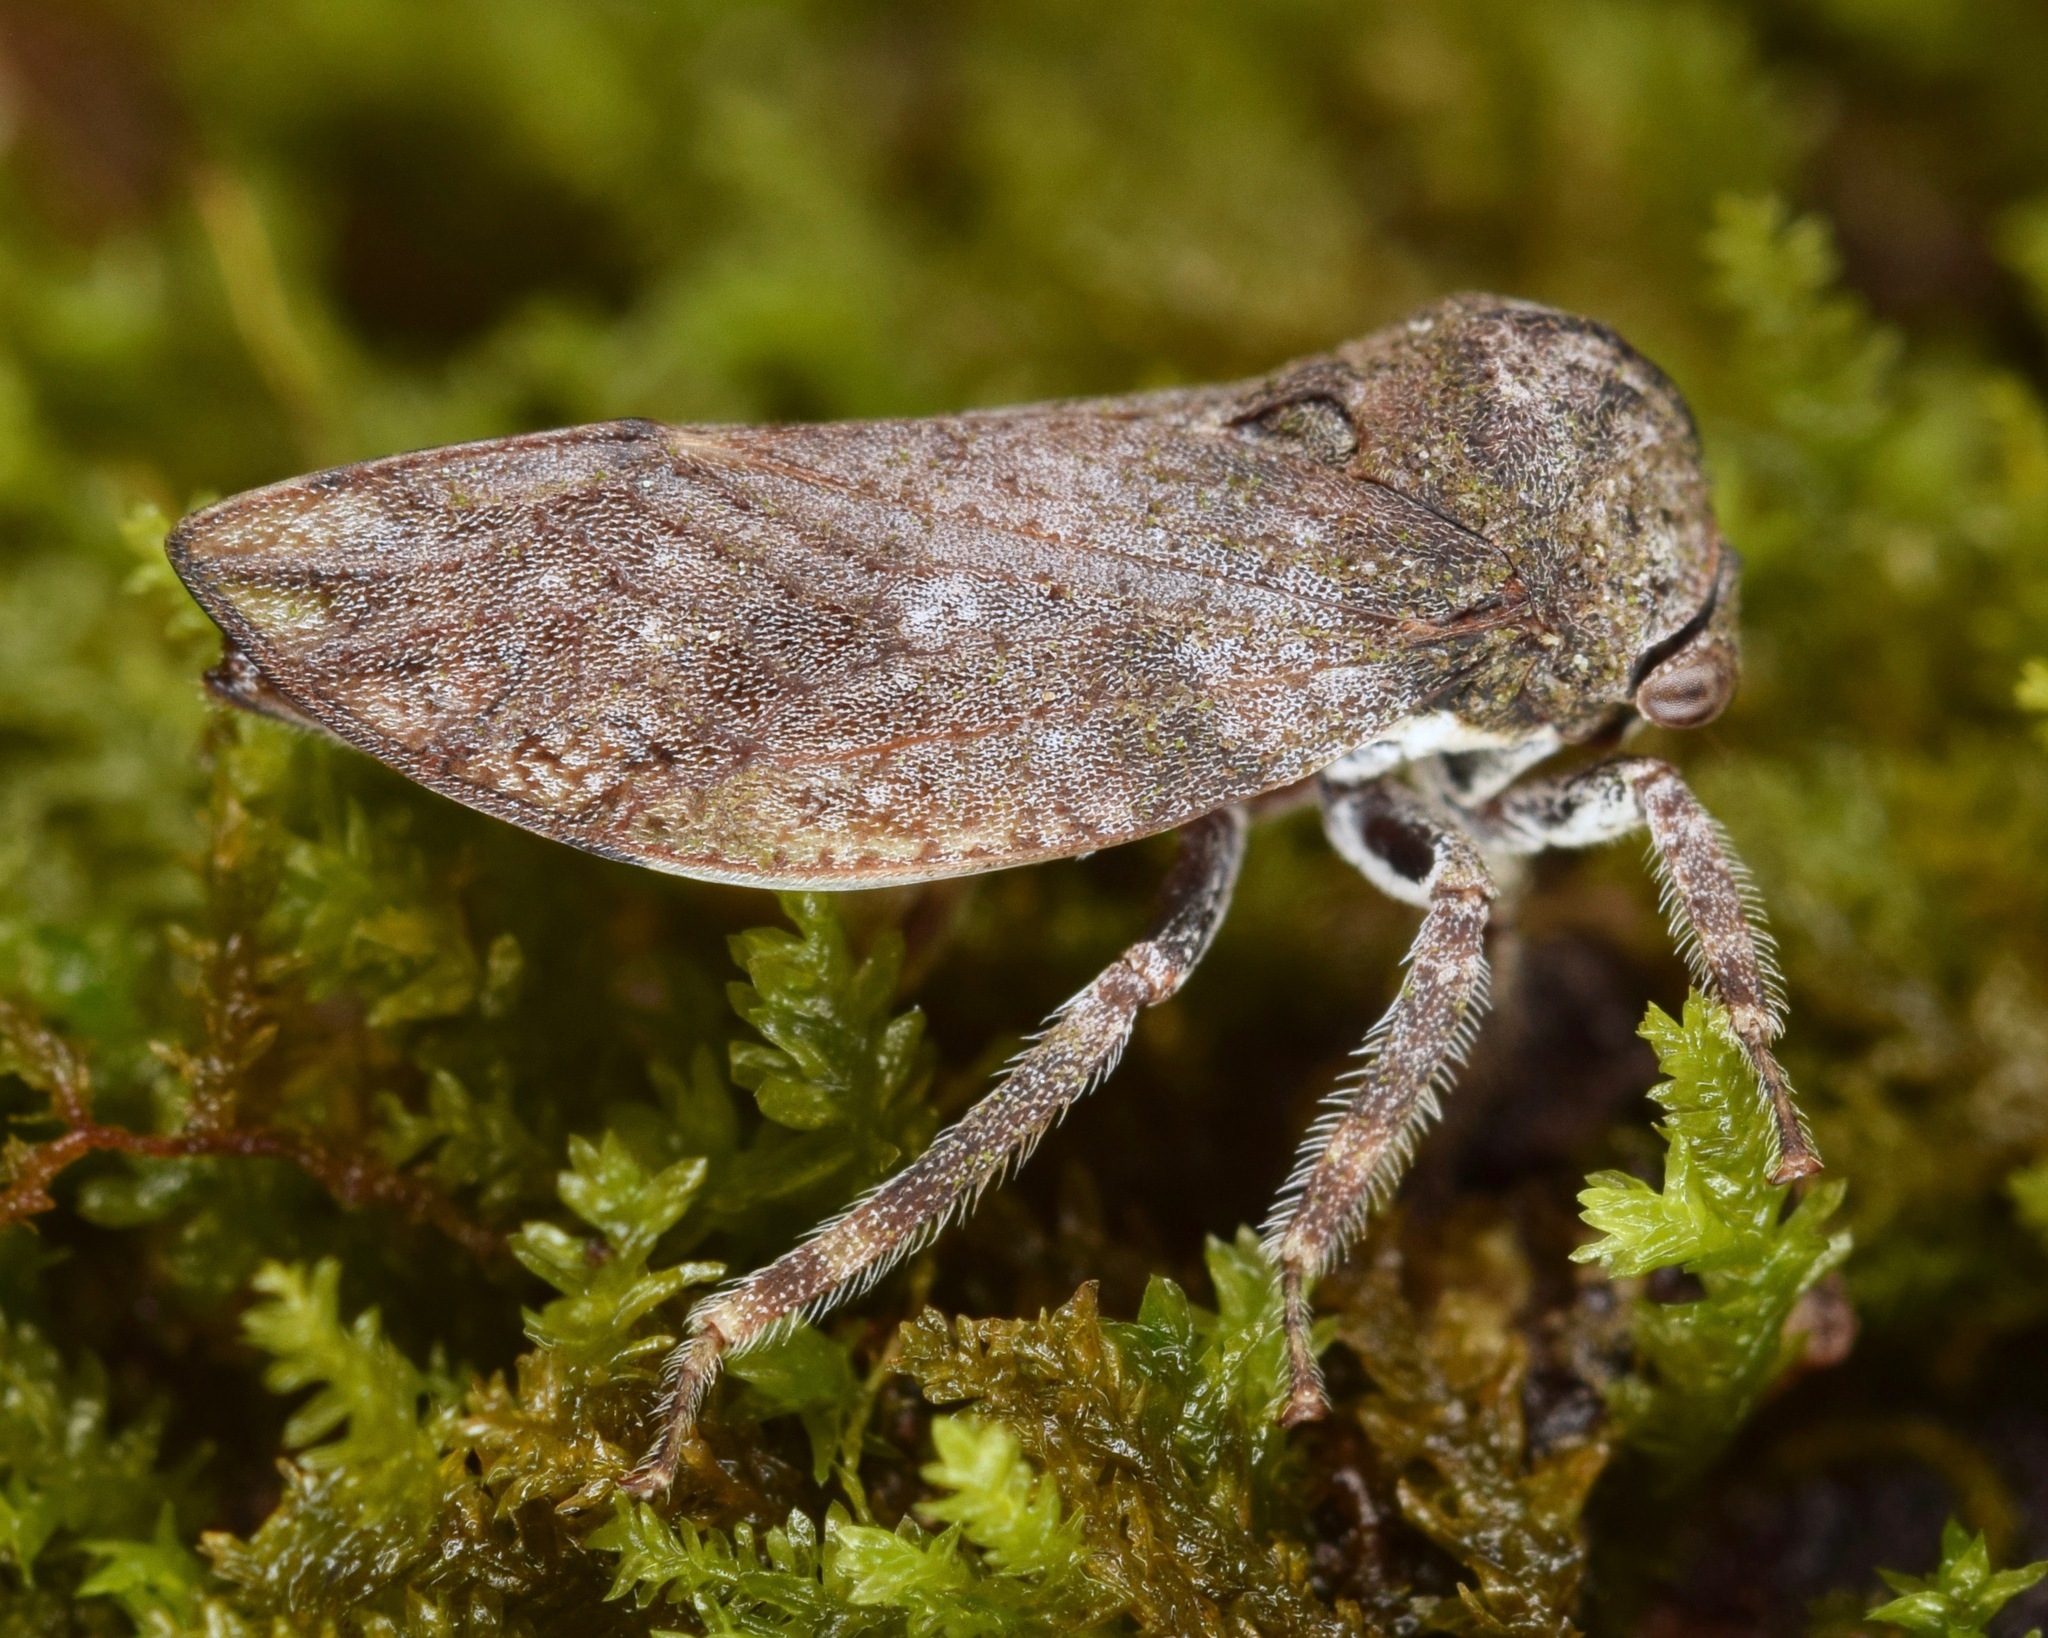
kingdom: Animalia
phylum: Arthropoda
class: Insecta
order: Hemiptera
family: Membracidae
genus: Microcentrus
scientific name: Microcentrus caryae
